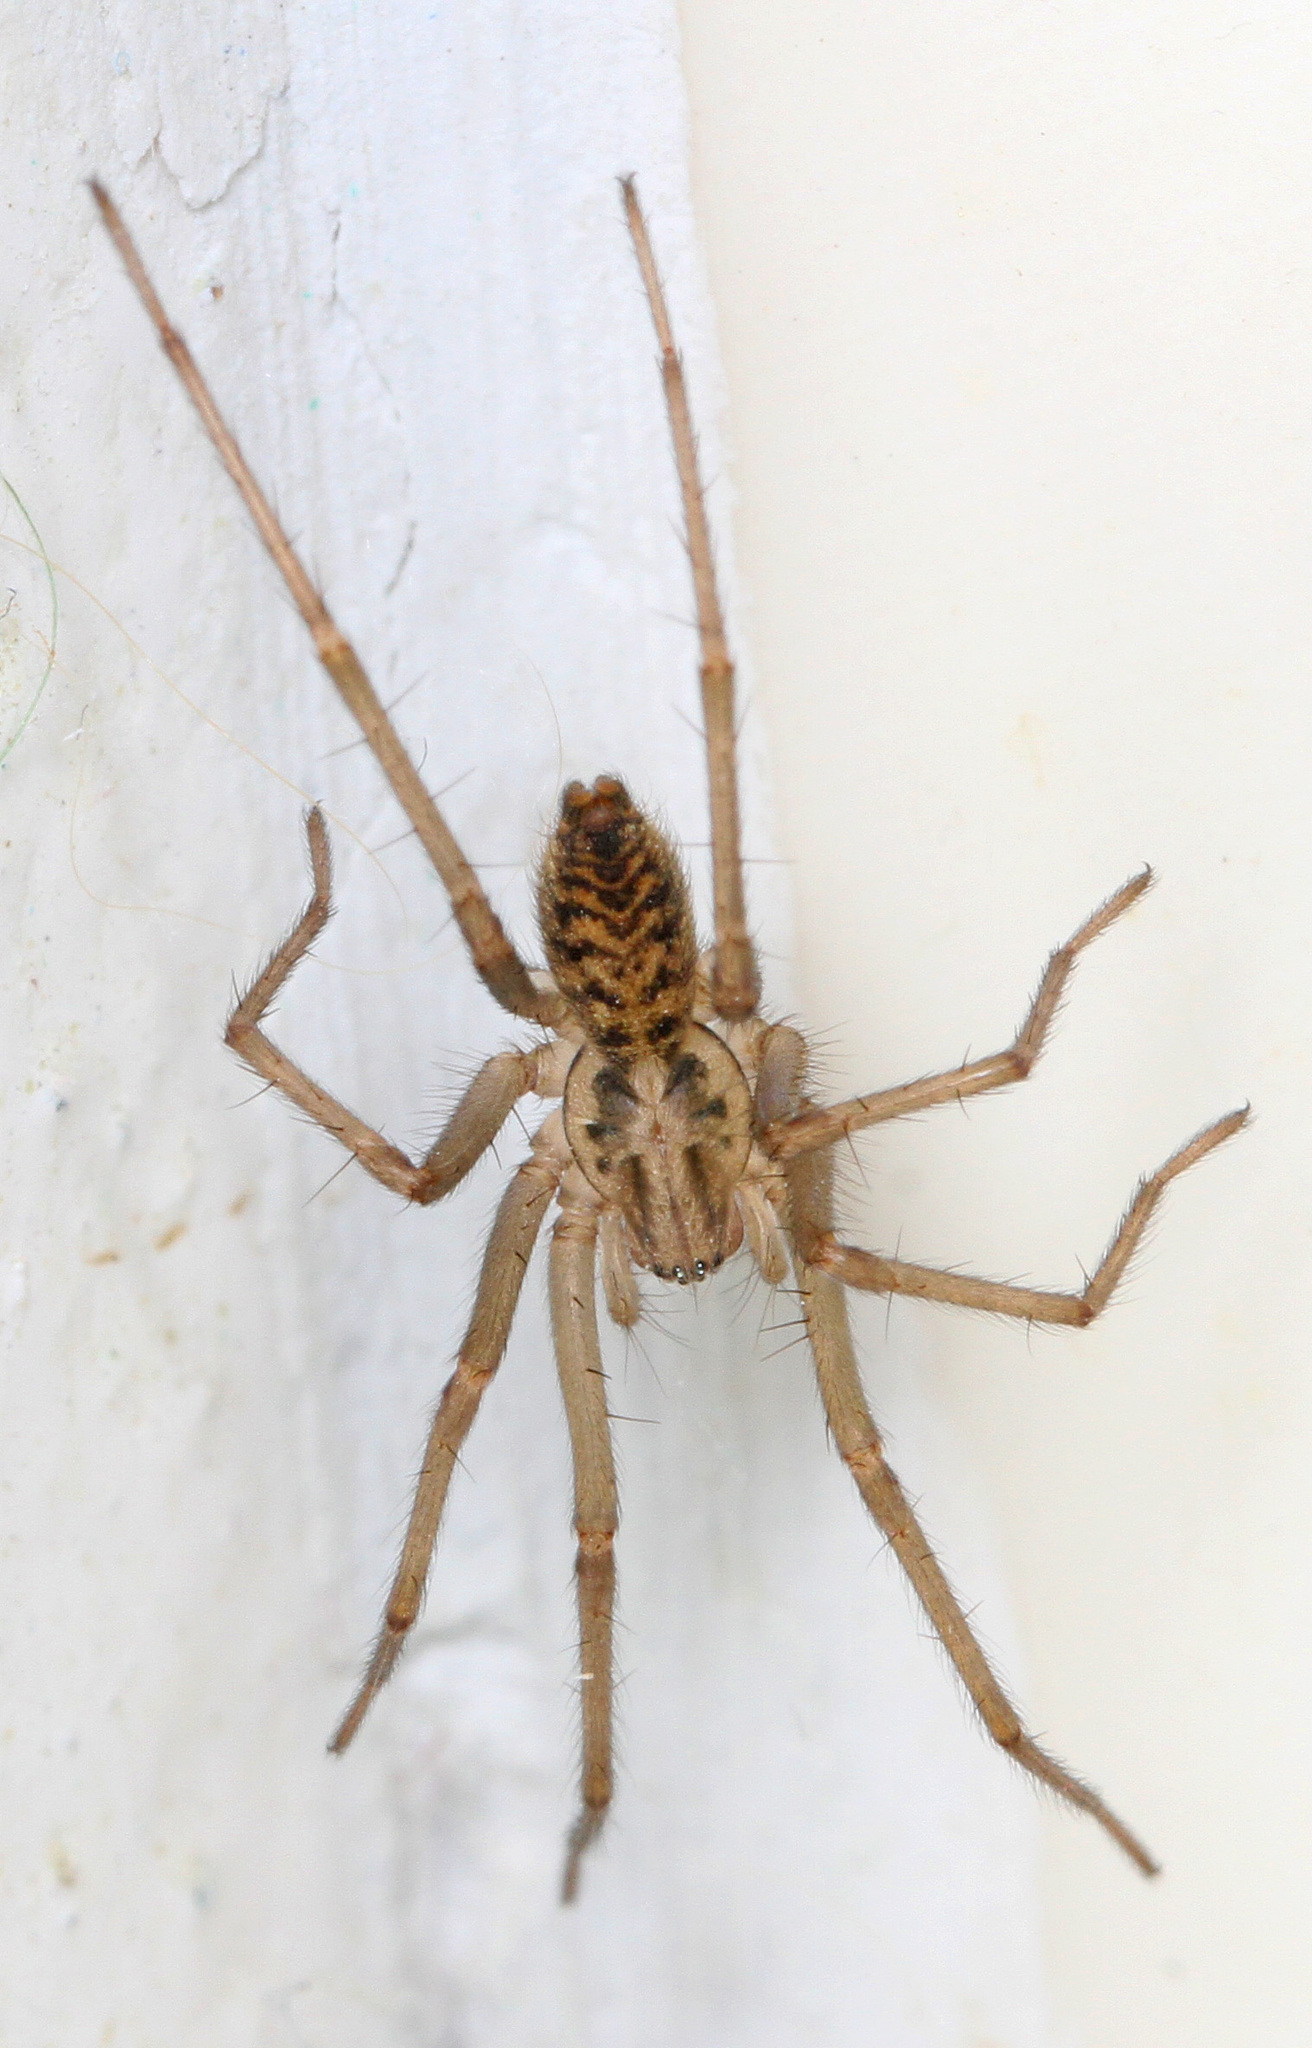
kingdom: Animalia
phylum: Arthropoda
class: Arachnida
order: Araneae
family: Agelenidae
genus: Eratigena
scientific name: Eratigena atrica
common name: Giant house spider
